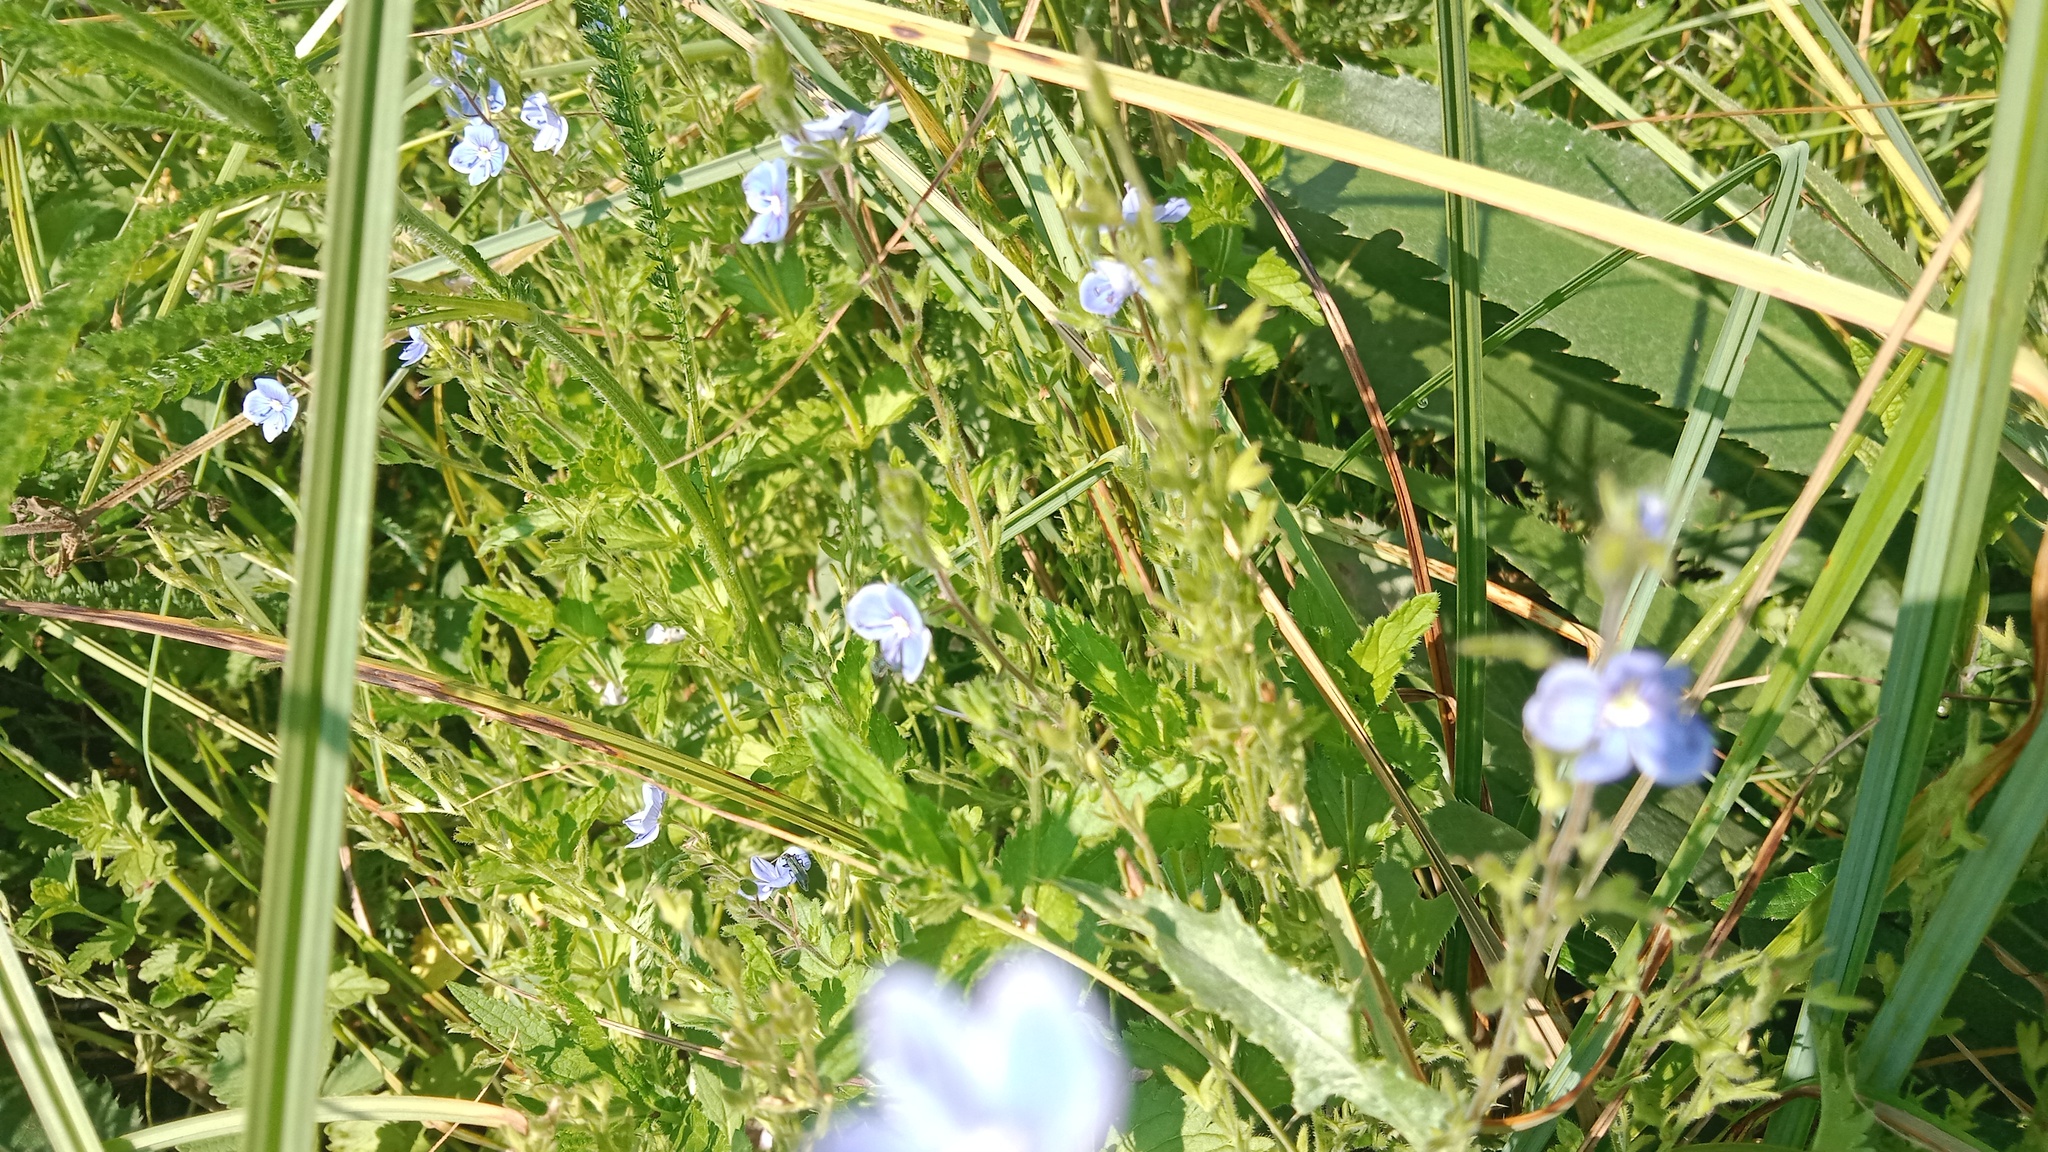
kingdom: Plantae
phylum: Tracheophyta
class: Magnoliopsida
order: Lamiales
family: Plantaginaceae
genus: Veronica
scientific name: Veronica chamaedrys
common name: Germander speedwell
